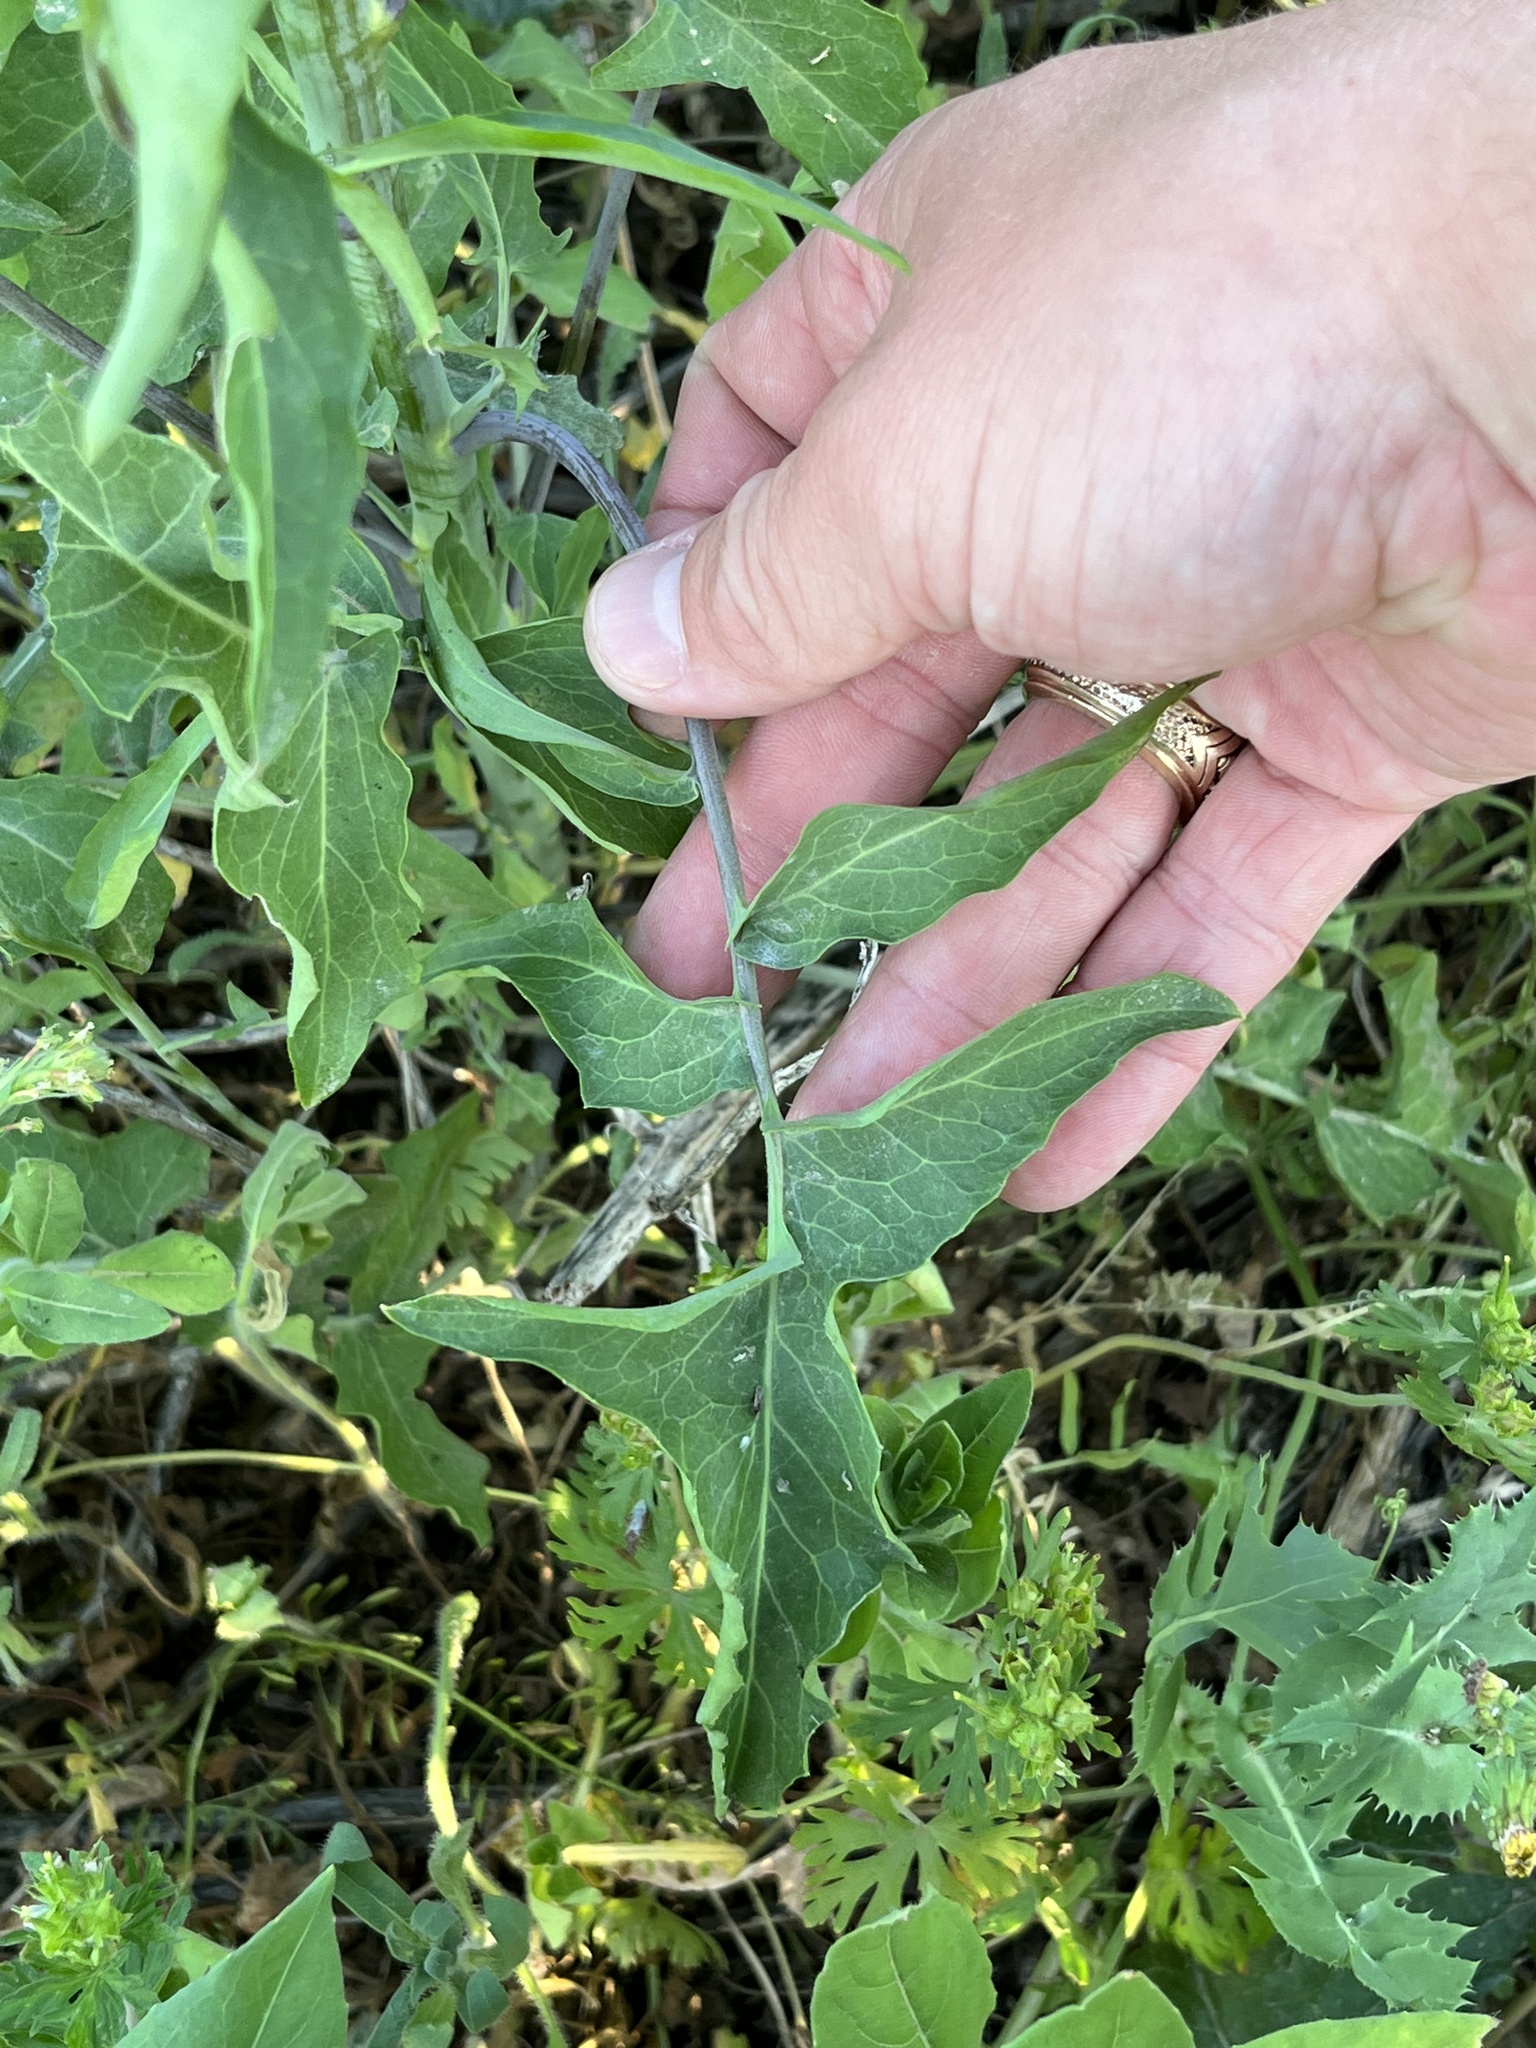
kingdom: Plantae
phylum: Tracheophyta
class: Magnoliopsida
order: Brassicales
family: Brassicaceae
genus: Streptanthus
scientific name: Streptanthus petiolaris
